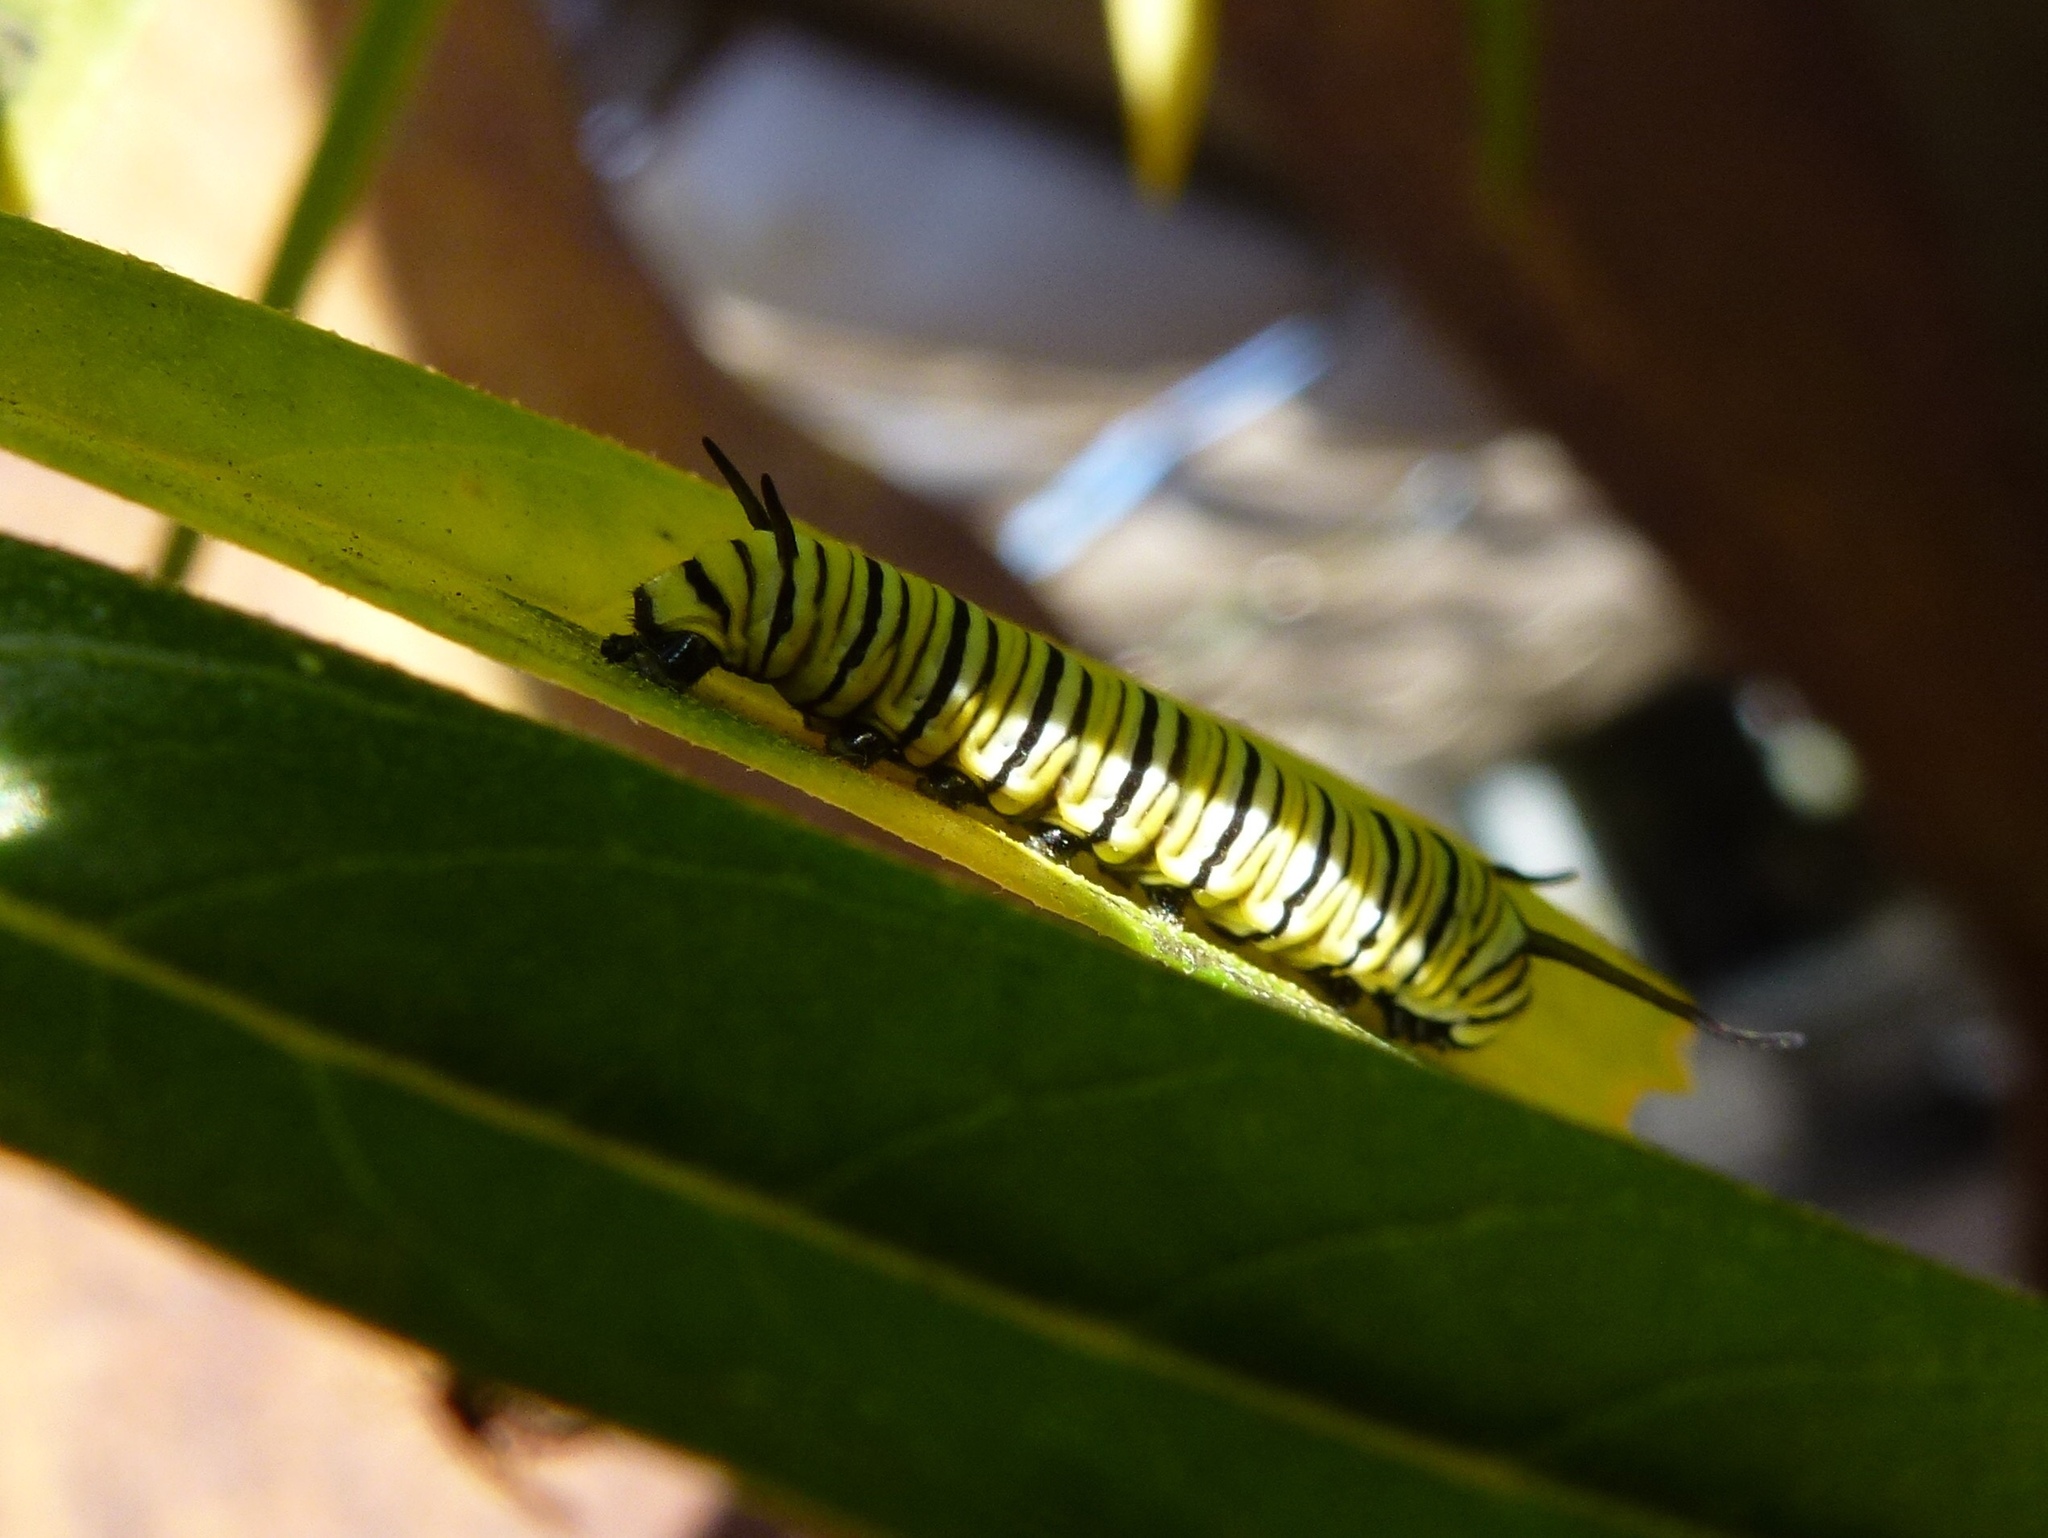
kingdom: Animalia
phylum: Arthropoda
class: Insecta
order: Lepidoptera
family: Nymphalidae
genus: Danaus
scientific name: Danaus plexippus
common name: Monarch
